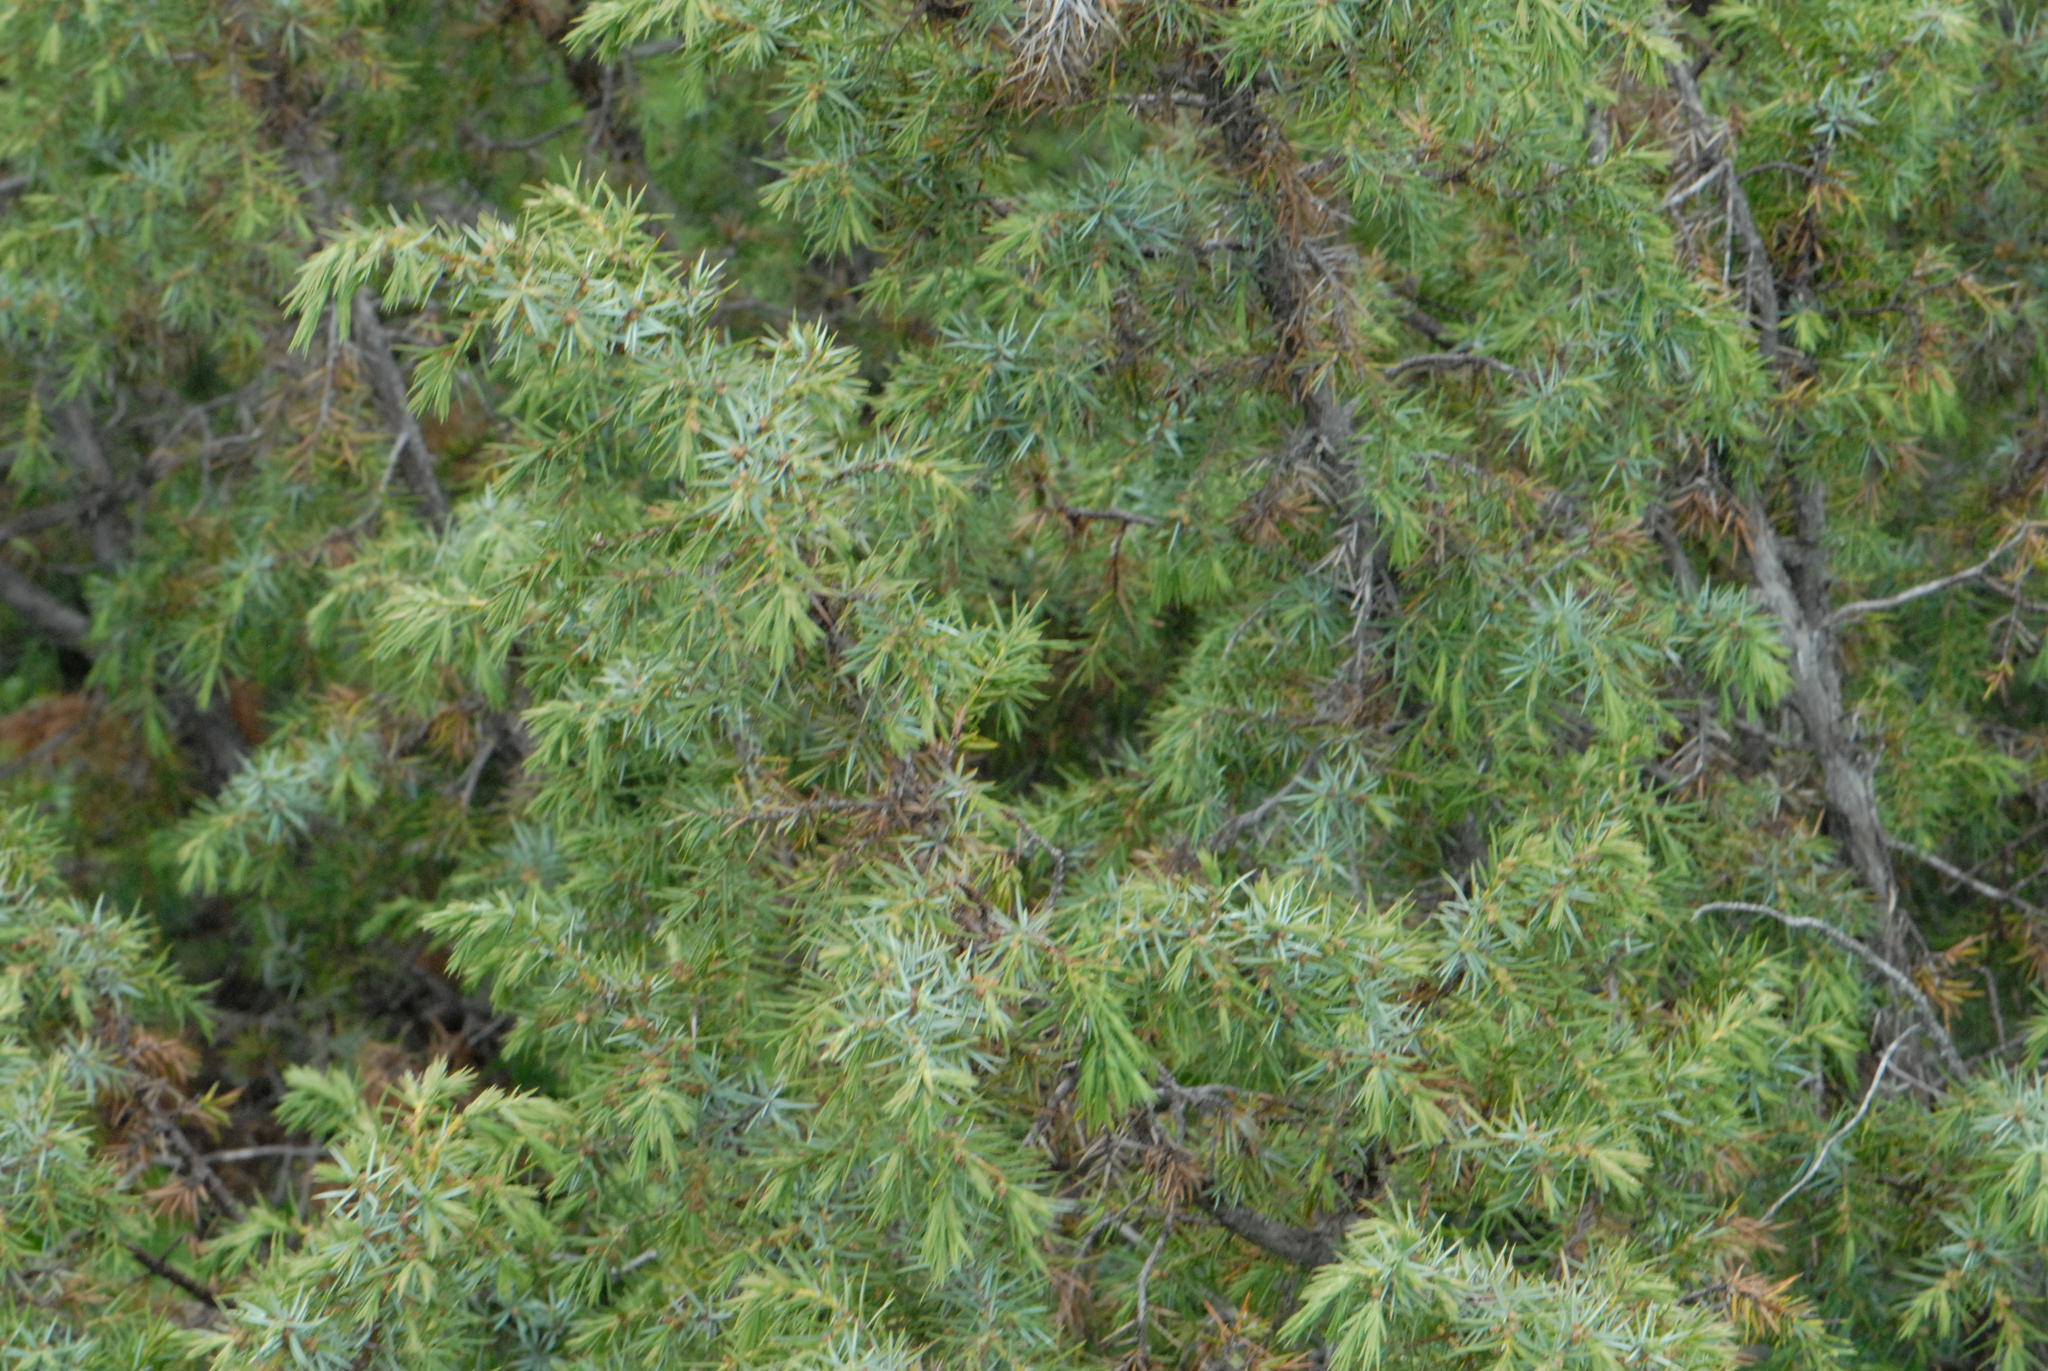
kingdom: Plantae
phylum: Tracheophyta
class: Pinopsida
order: Pinales
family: Cupressaceae
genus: Juniperus
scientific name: Juniperus communis
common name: Common juniper
